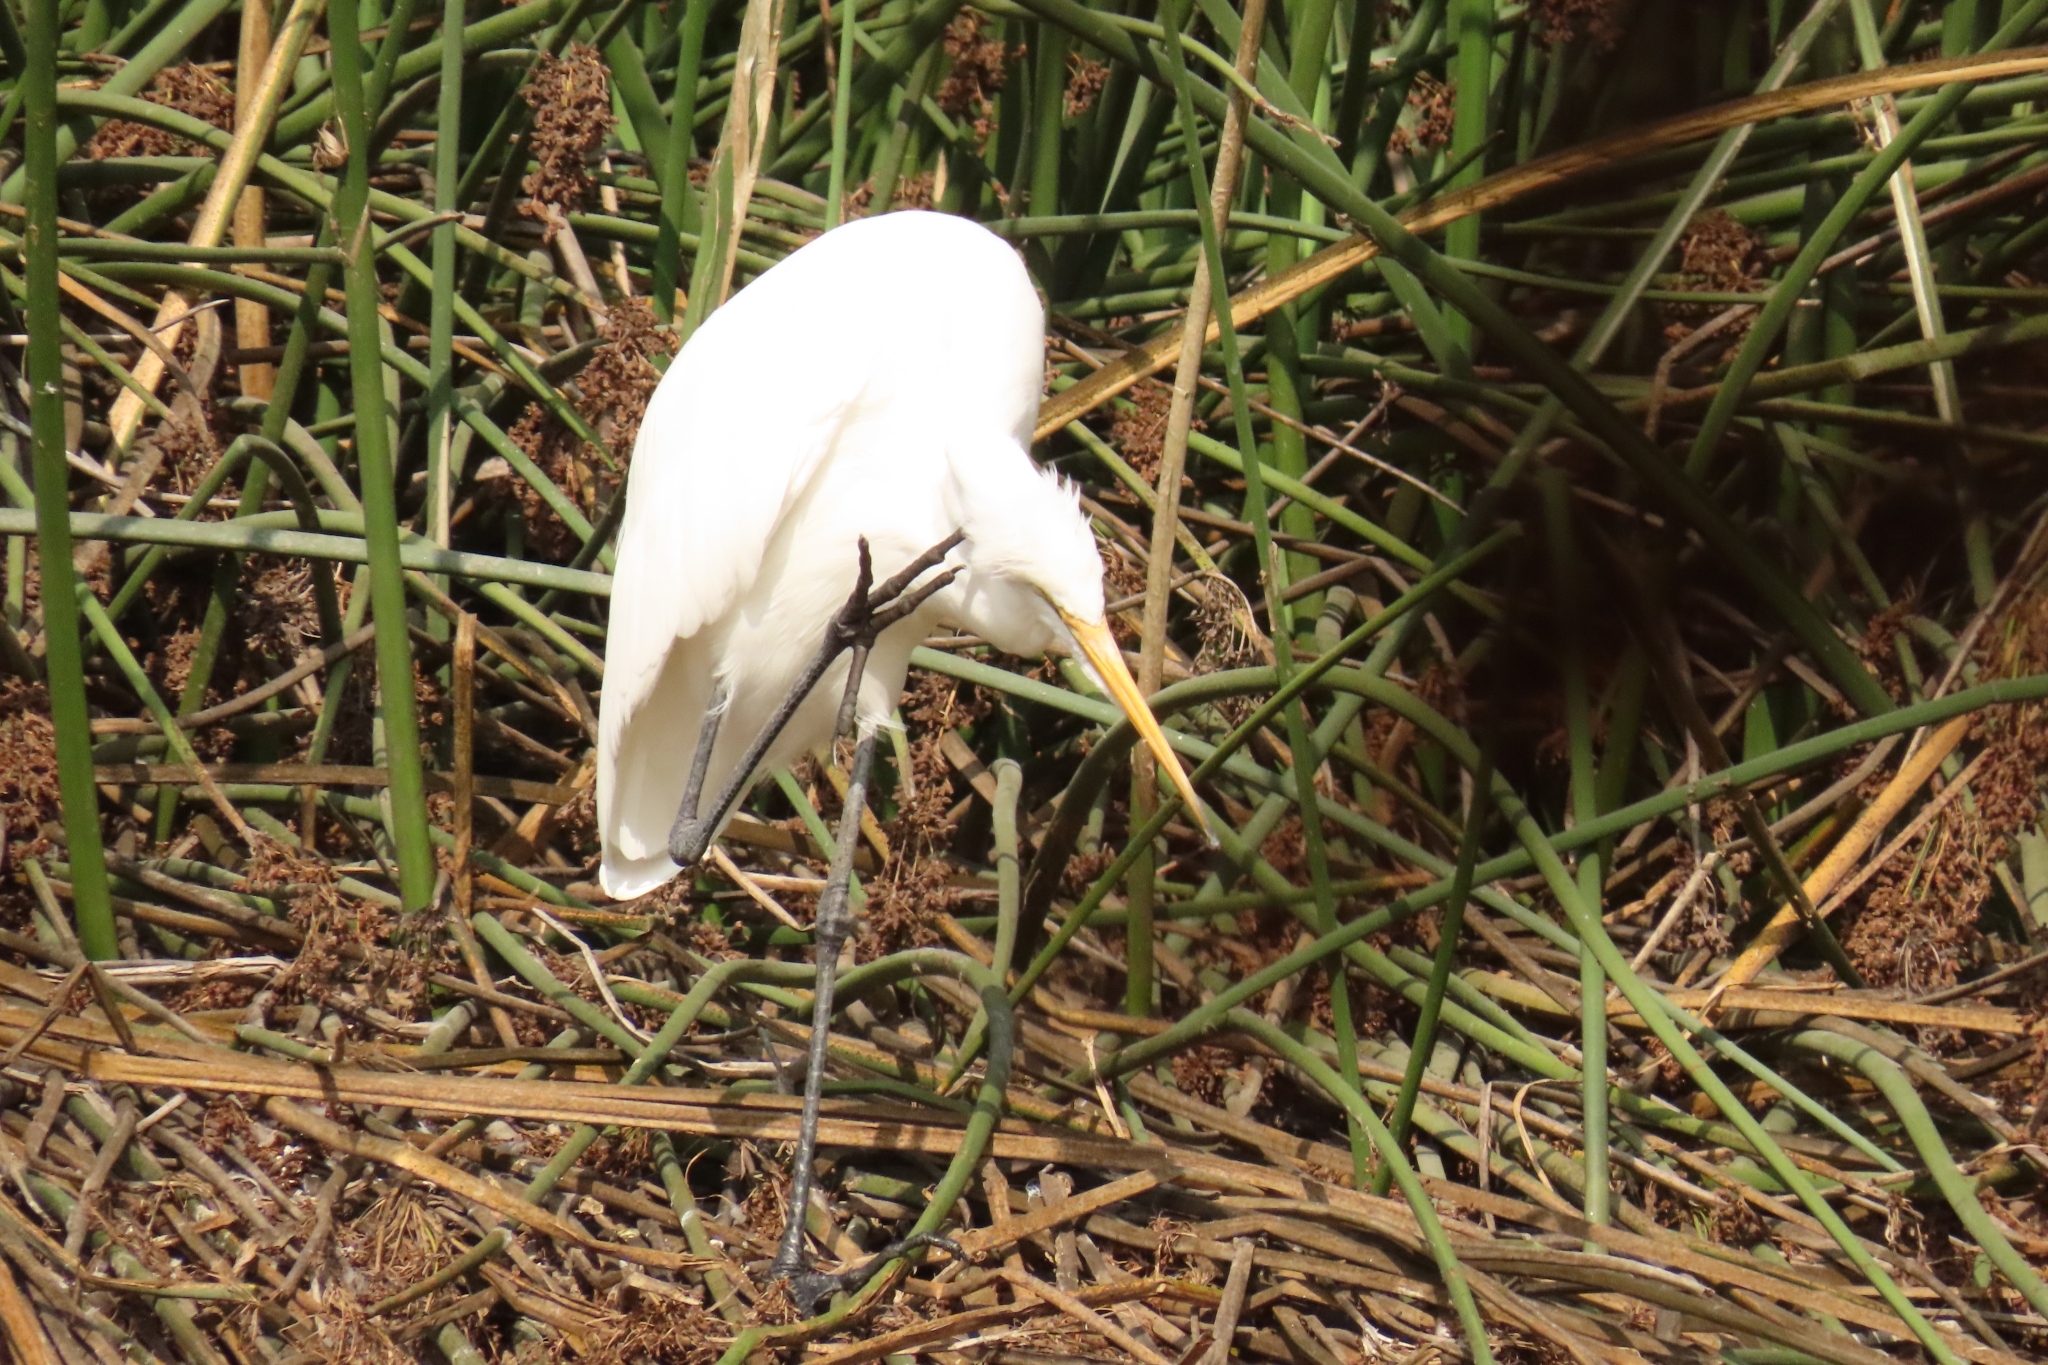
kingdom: Animalia
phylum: Chordata
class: Aves
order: Pelecaniformes
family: Ardeidae
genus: Ardea
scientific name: Ardea alba
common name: Great egret
